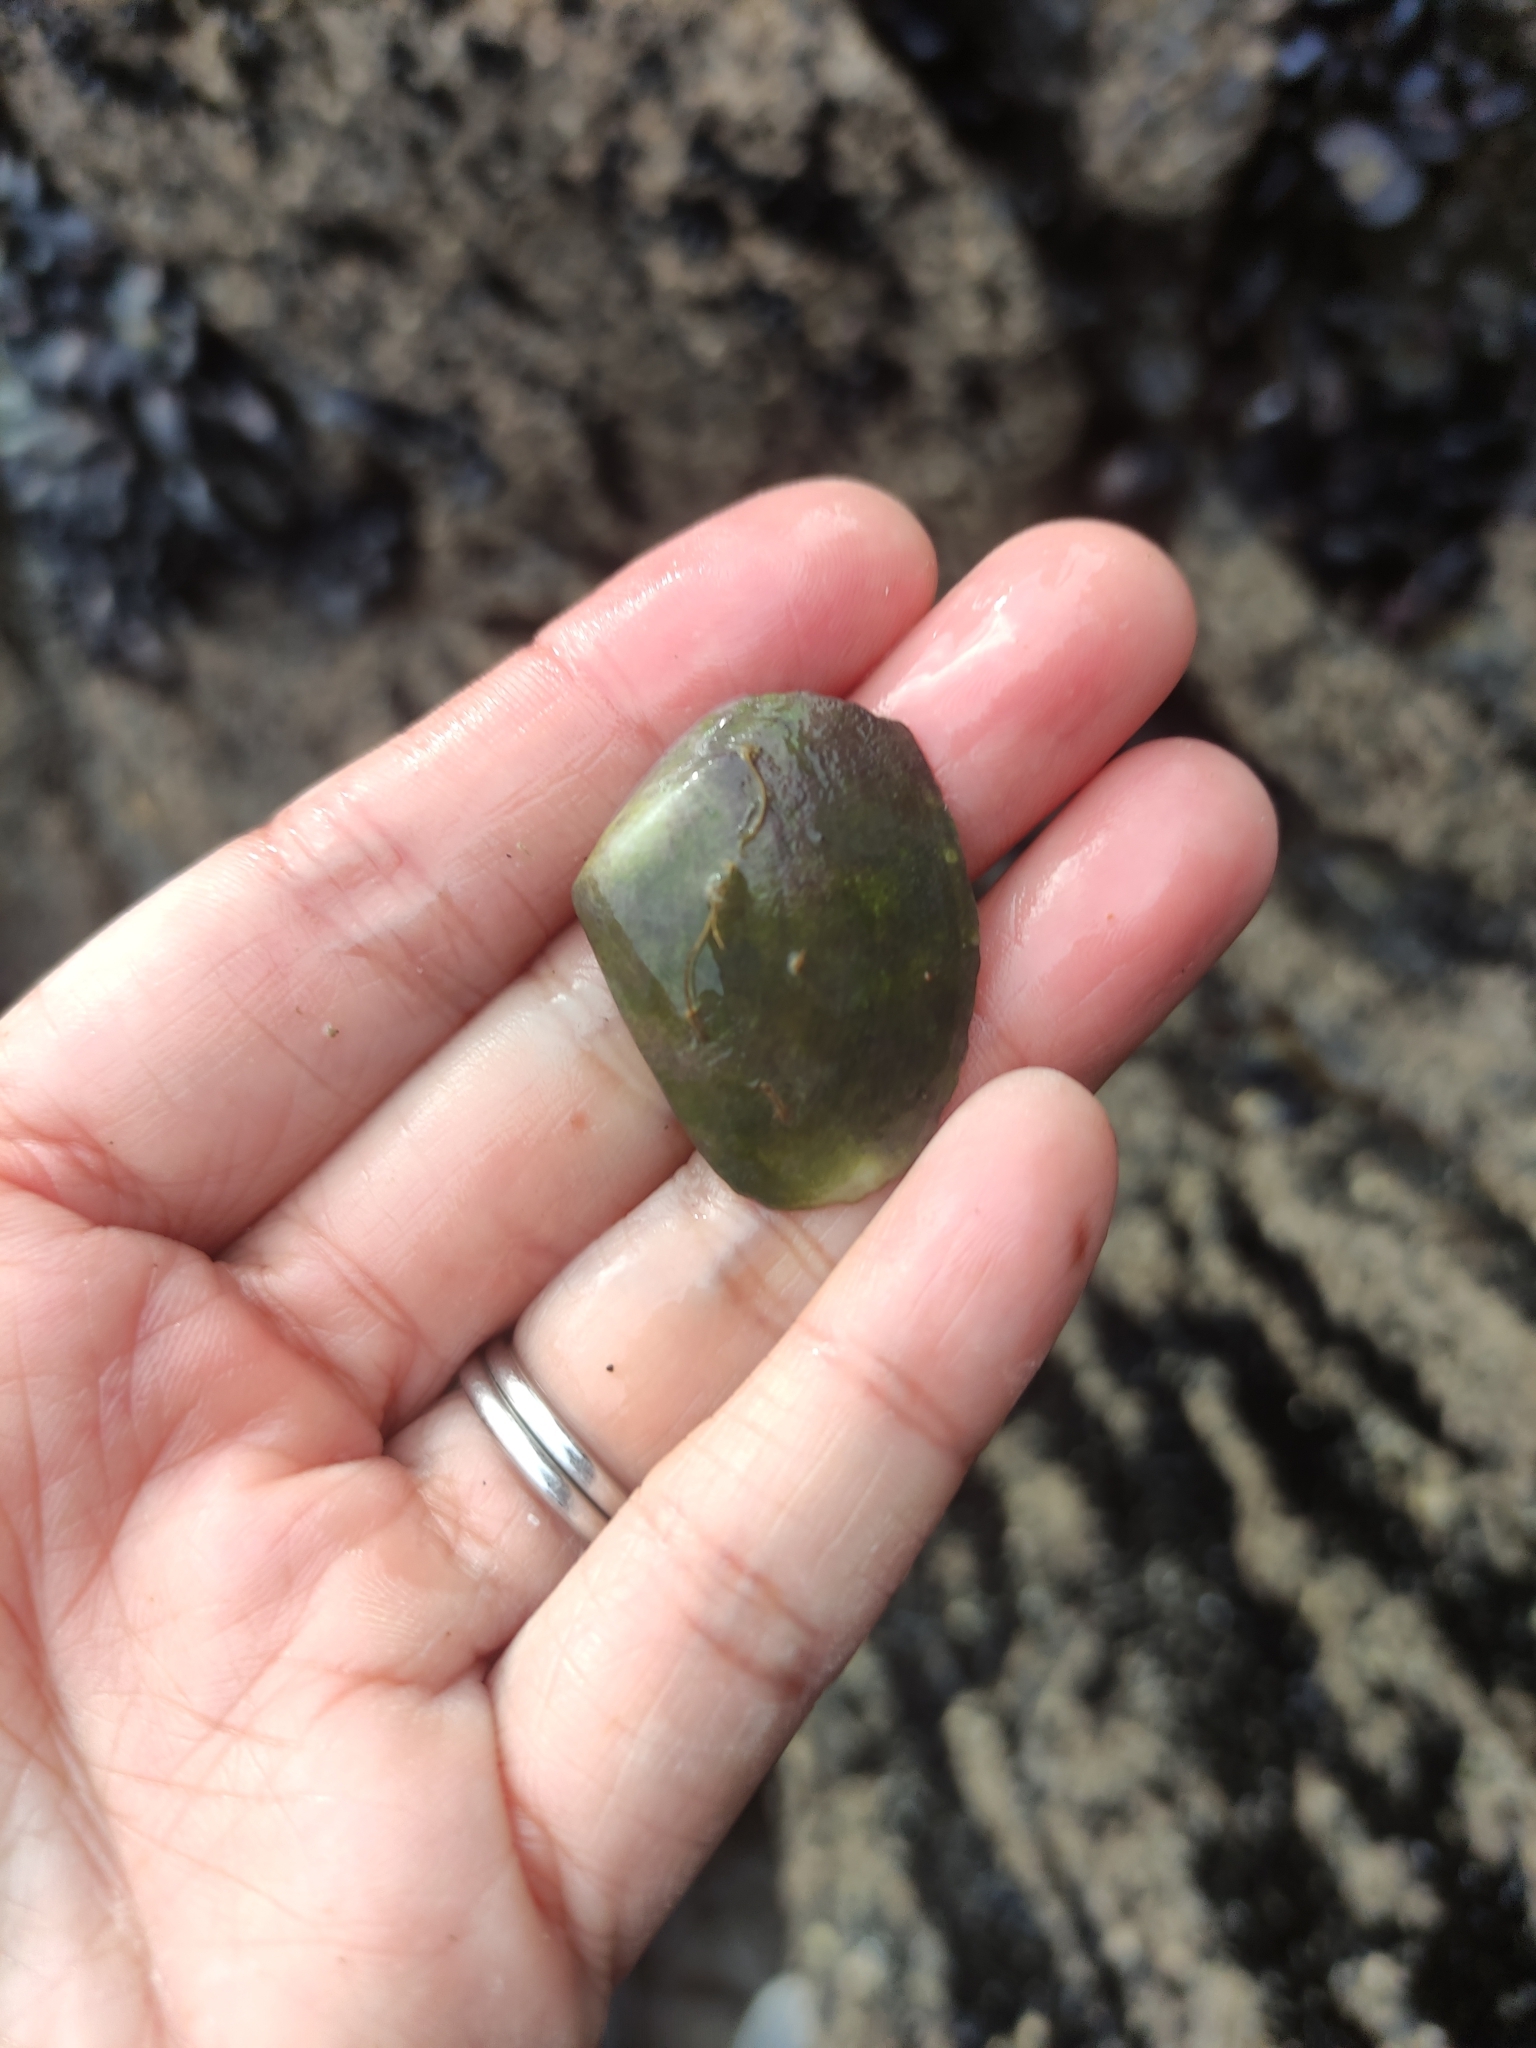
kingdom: Animalia
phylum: Mollusca
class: Bivalvia
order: Venerida
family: Mesodesmatidae
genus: Paphies
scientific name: Paphies donacina
